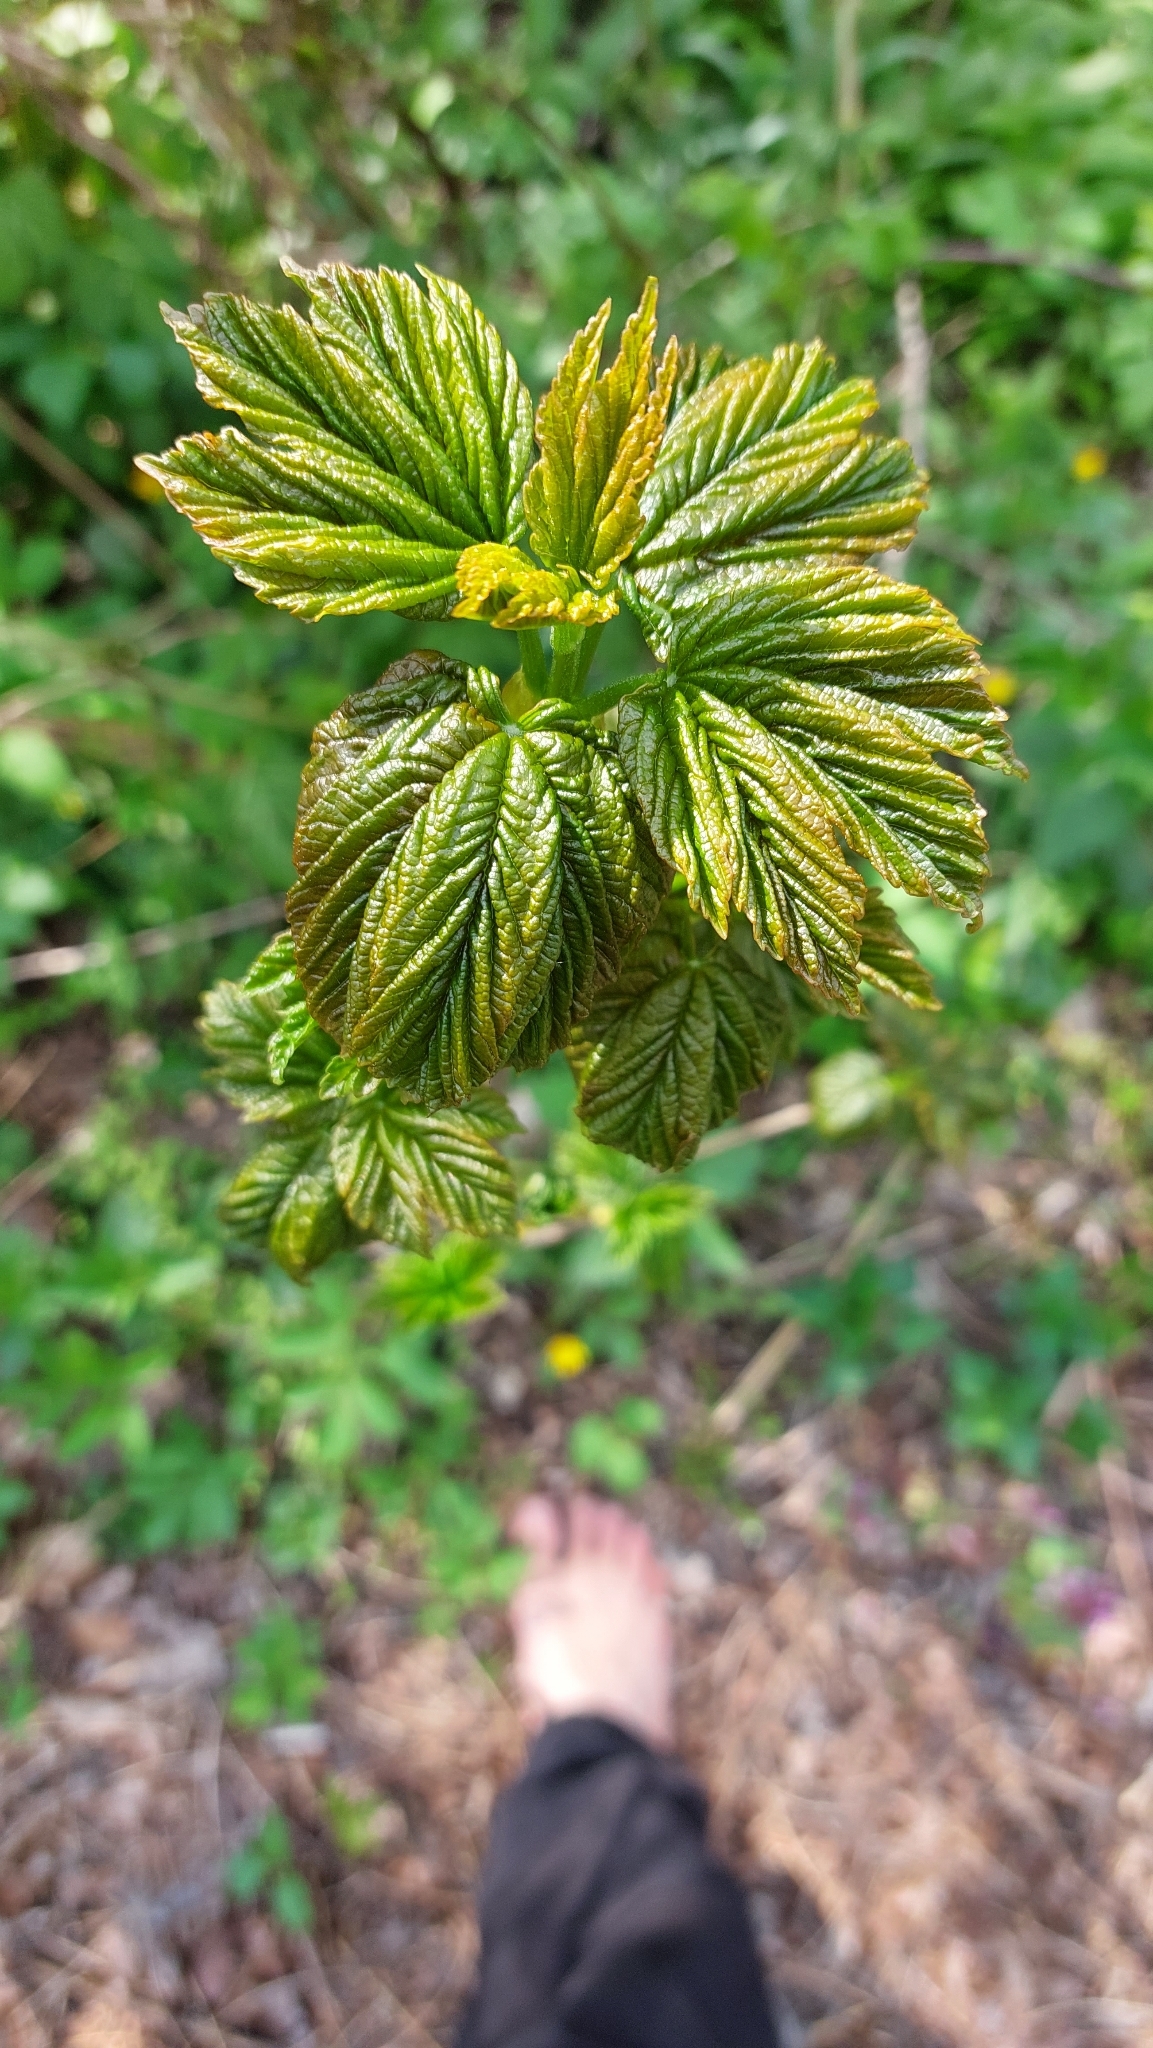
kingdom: Plantae
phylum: Tracheophyta
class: Magnoliopsida
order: Sapindales
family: Sapindaceae
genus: Acer
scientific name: Acer pseudoplatanus
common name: Sycamore
